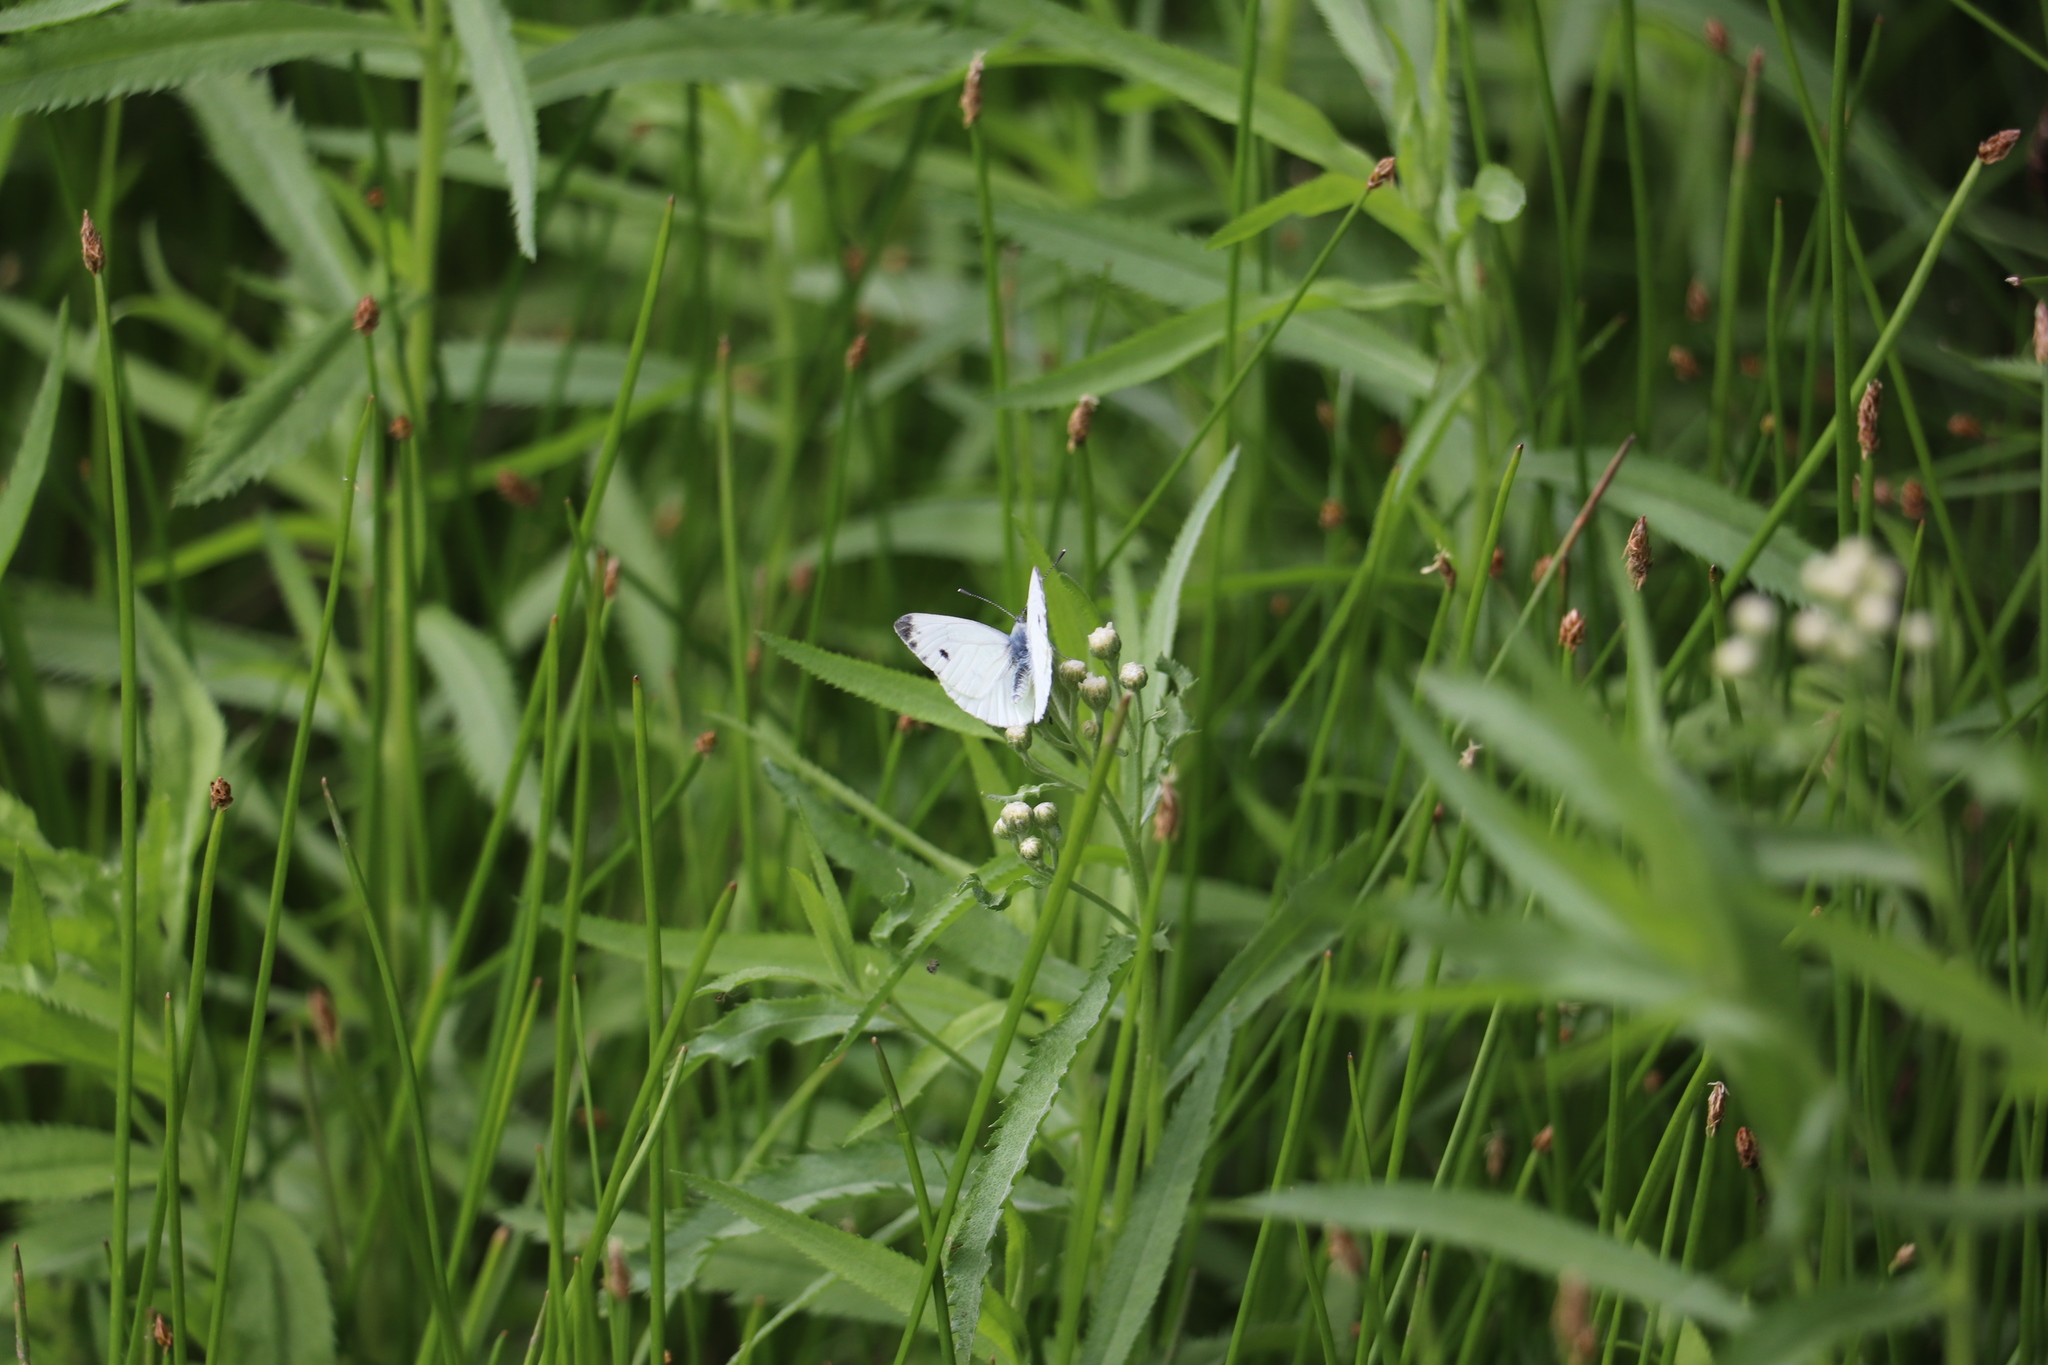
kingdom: Animalia
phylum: Arthropoda
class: Insecta
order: Lepidoptera
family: Pieridae
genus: Pieris
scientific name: Pieris napi
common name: Green-veined white
